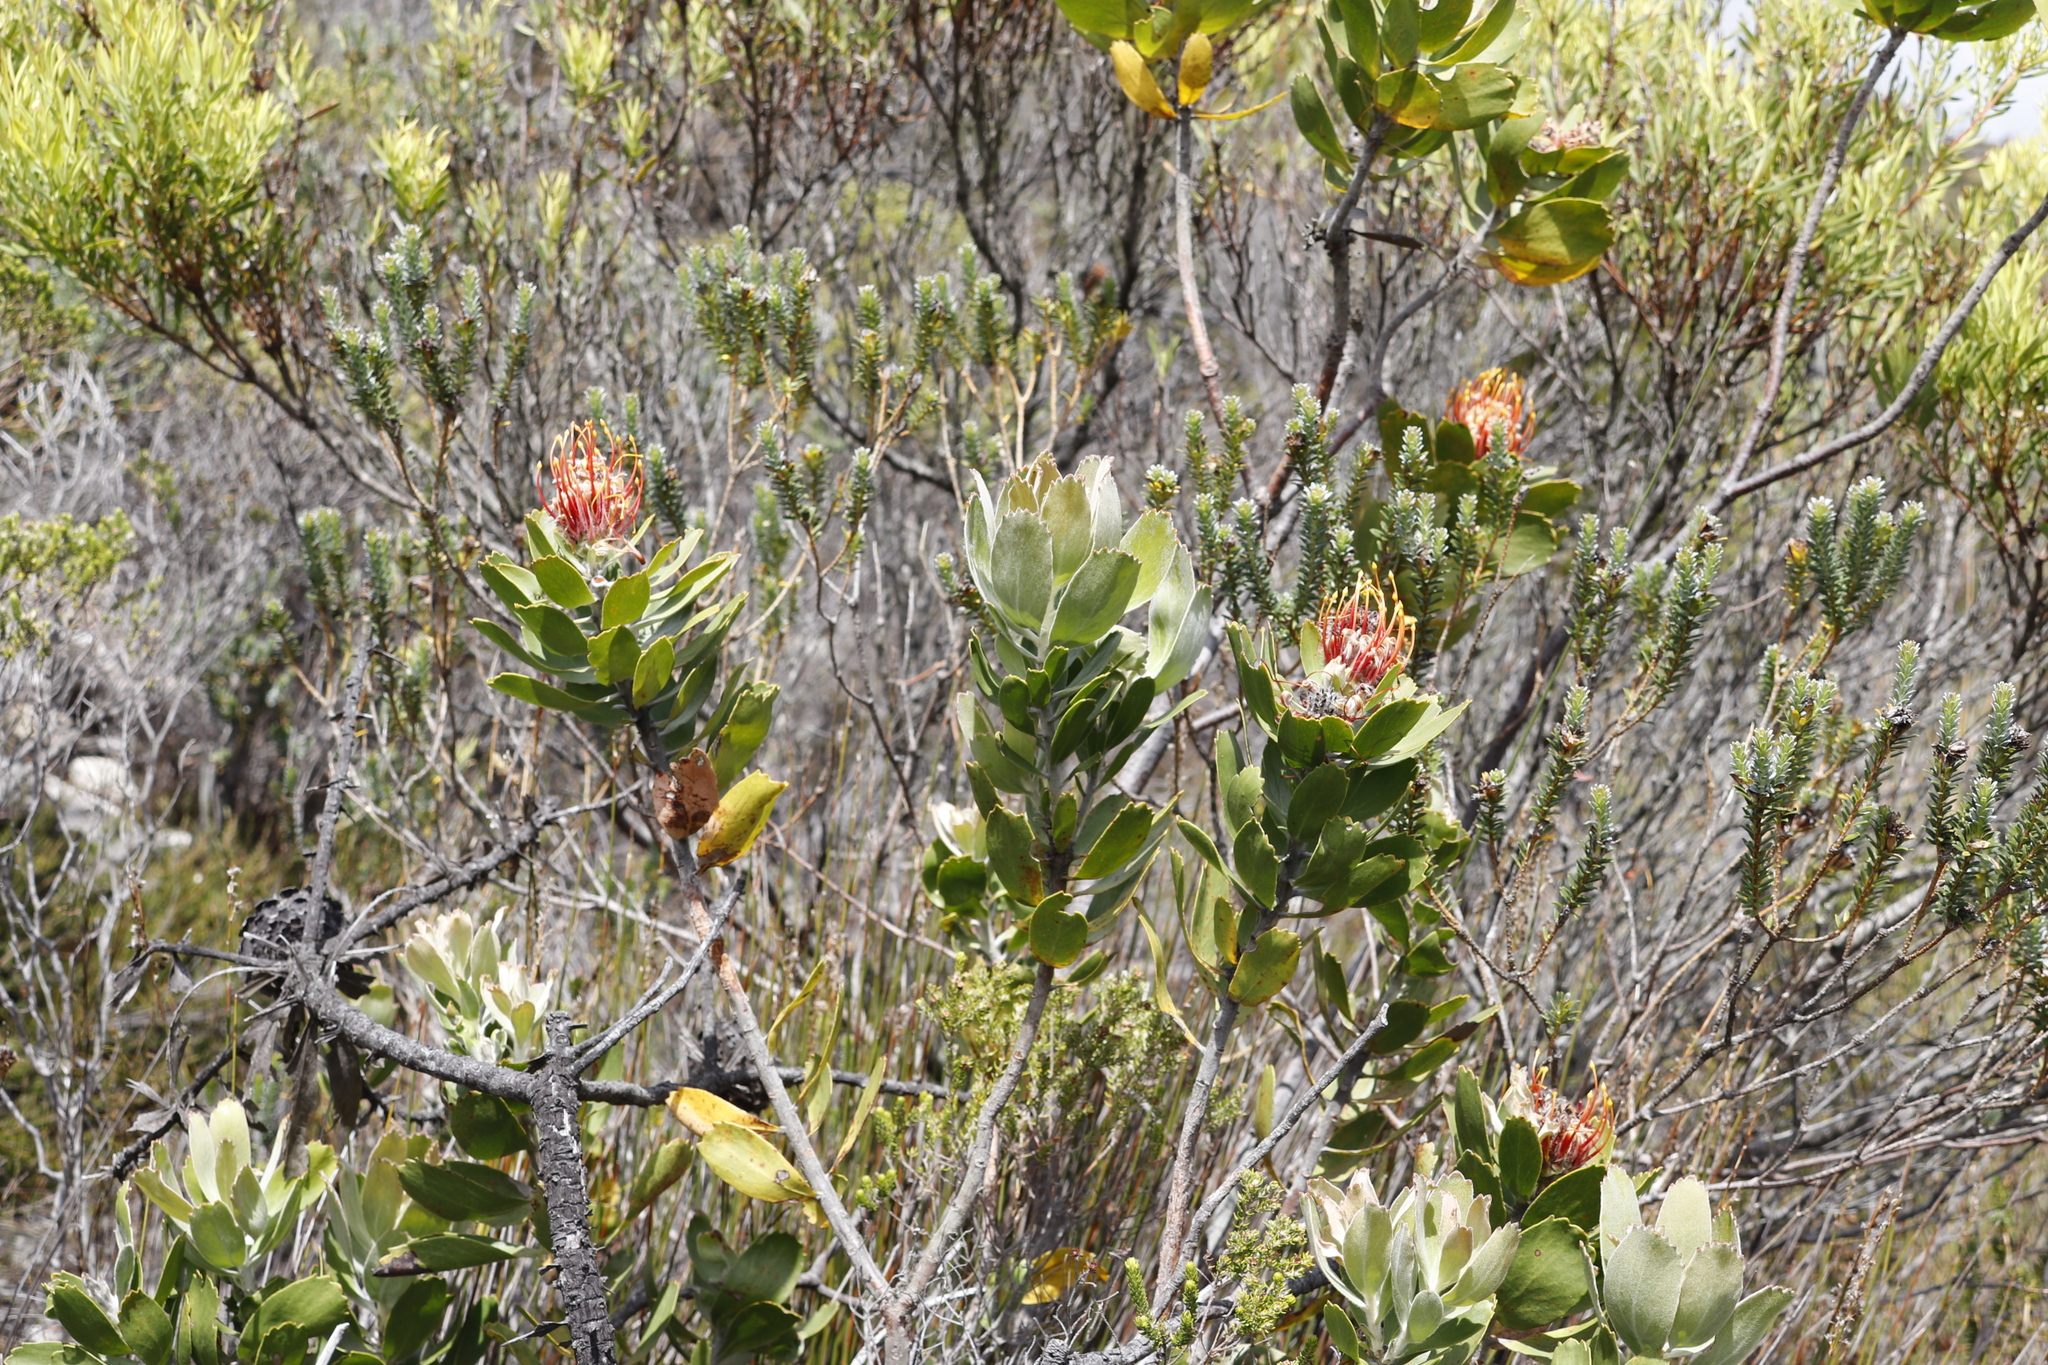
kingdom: Plantae
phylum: Tracheophyta
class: Magnoliopsida
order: Proteales
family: Proteaceae
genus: Leucospermum
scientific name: Leucospermum cuneiforme
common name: Common pincushion
